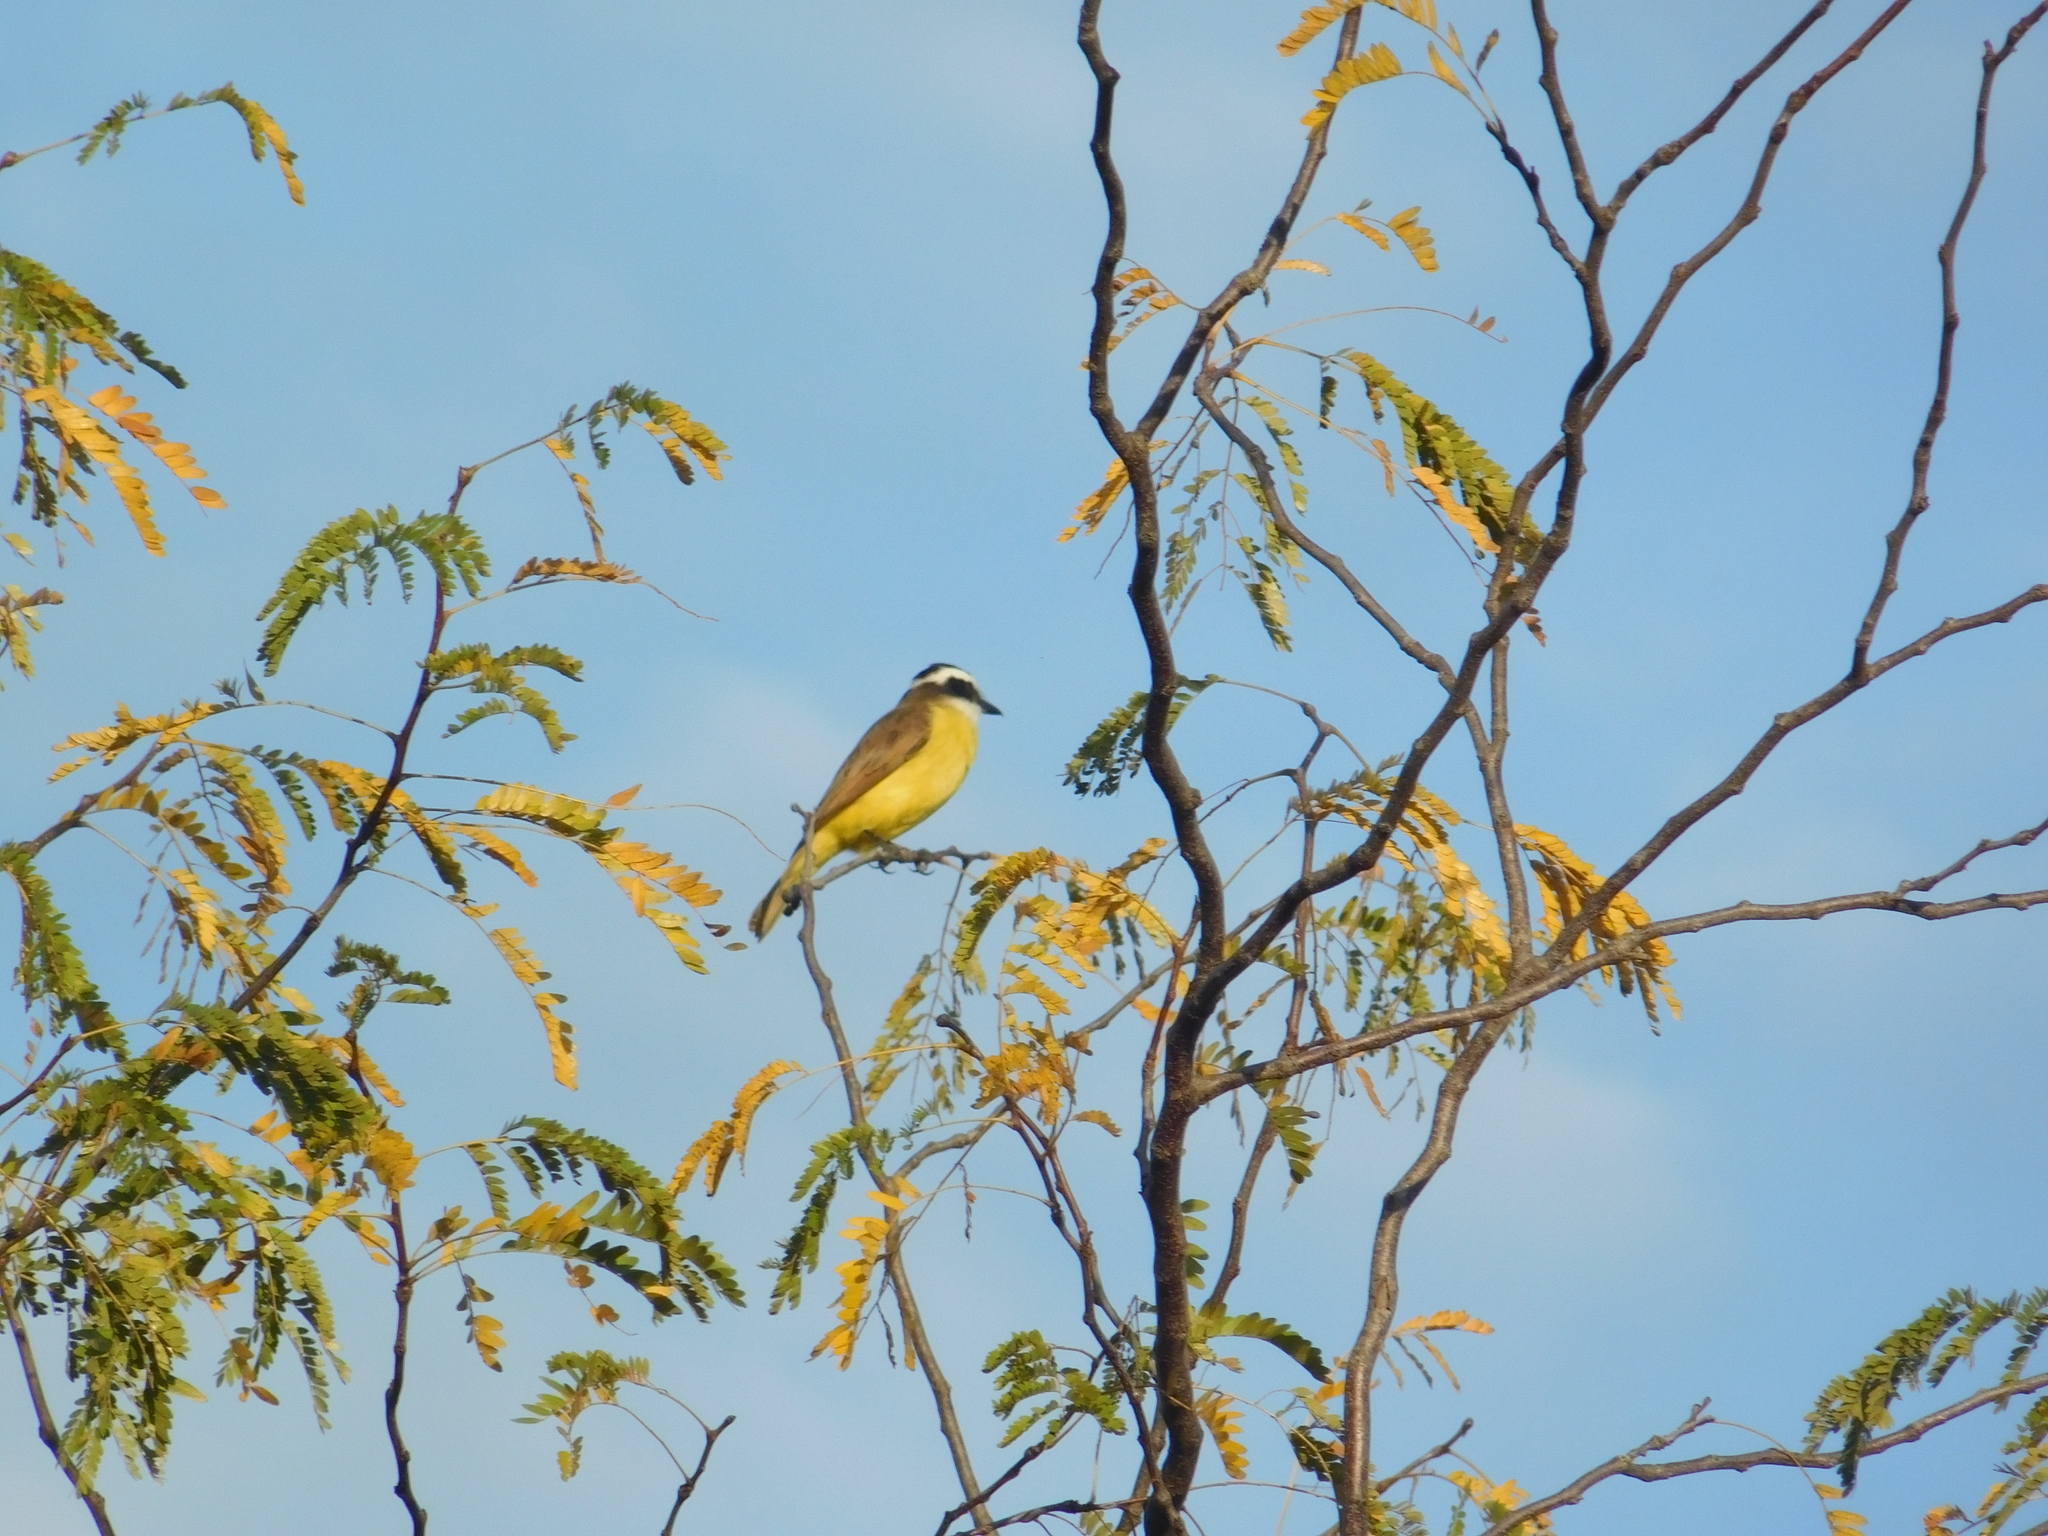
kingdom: Animalia
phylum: Chordata
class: Aves
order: Passeriformes
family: Tyrannidae
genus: Pitangus
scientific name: Pitangus sulphuratus
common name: Great kiskadee
